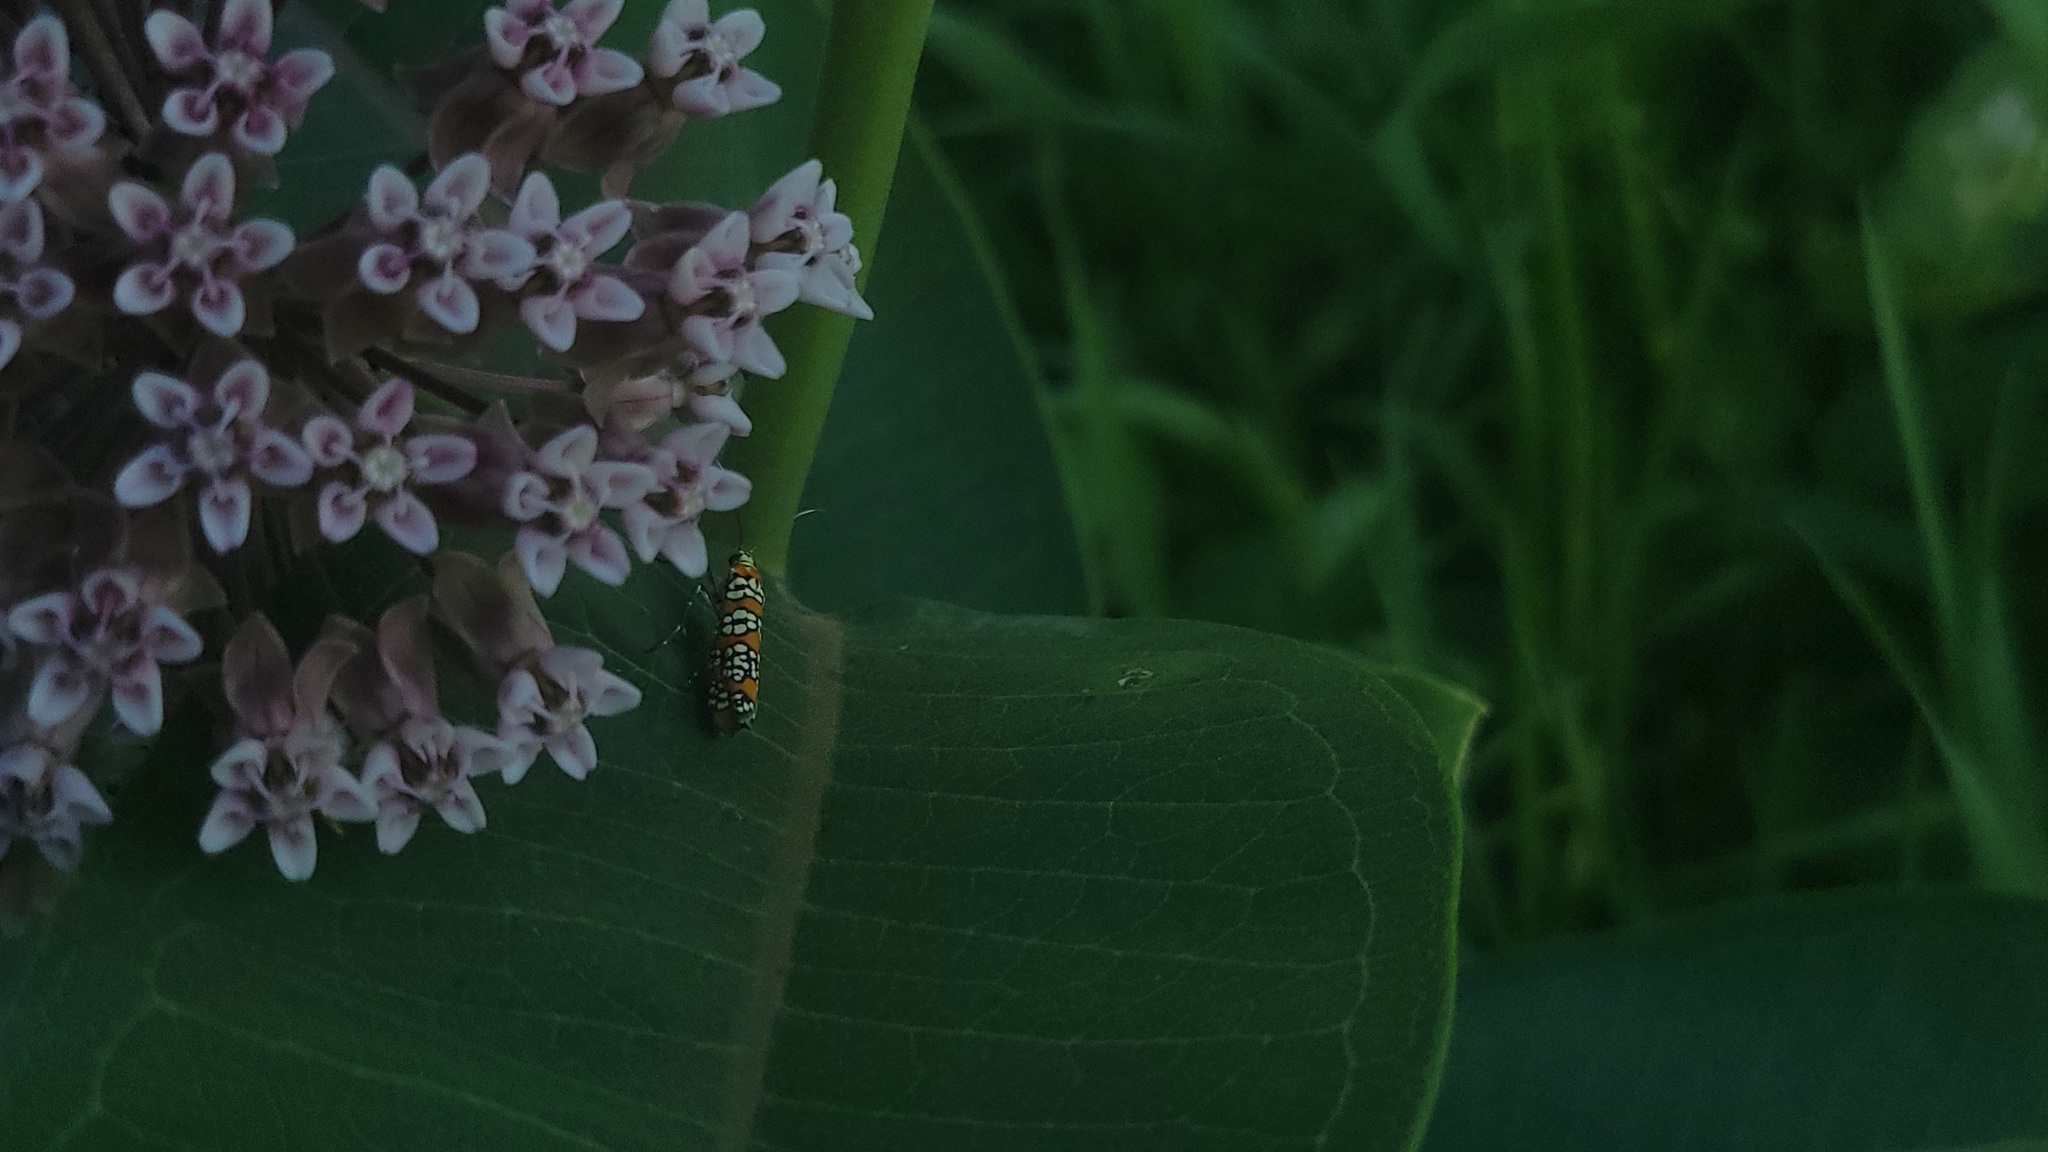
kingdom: Animalia
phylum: Arthropoda
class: Insecta
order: Lepidoptera
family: Attevidae
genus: Atteva
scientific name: Atteva punctella
